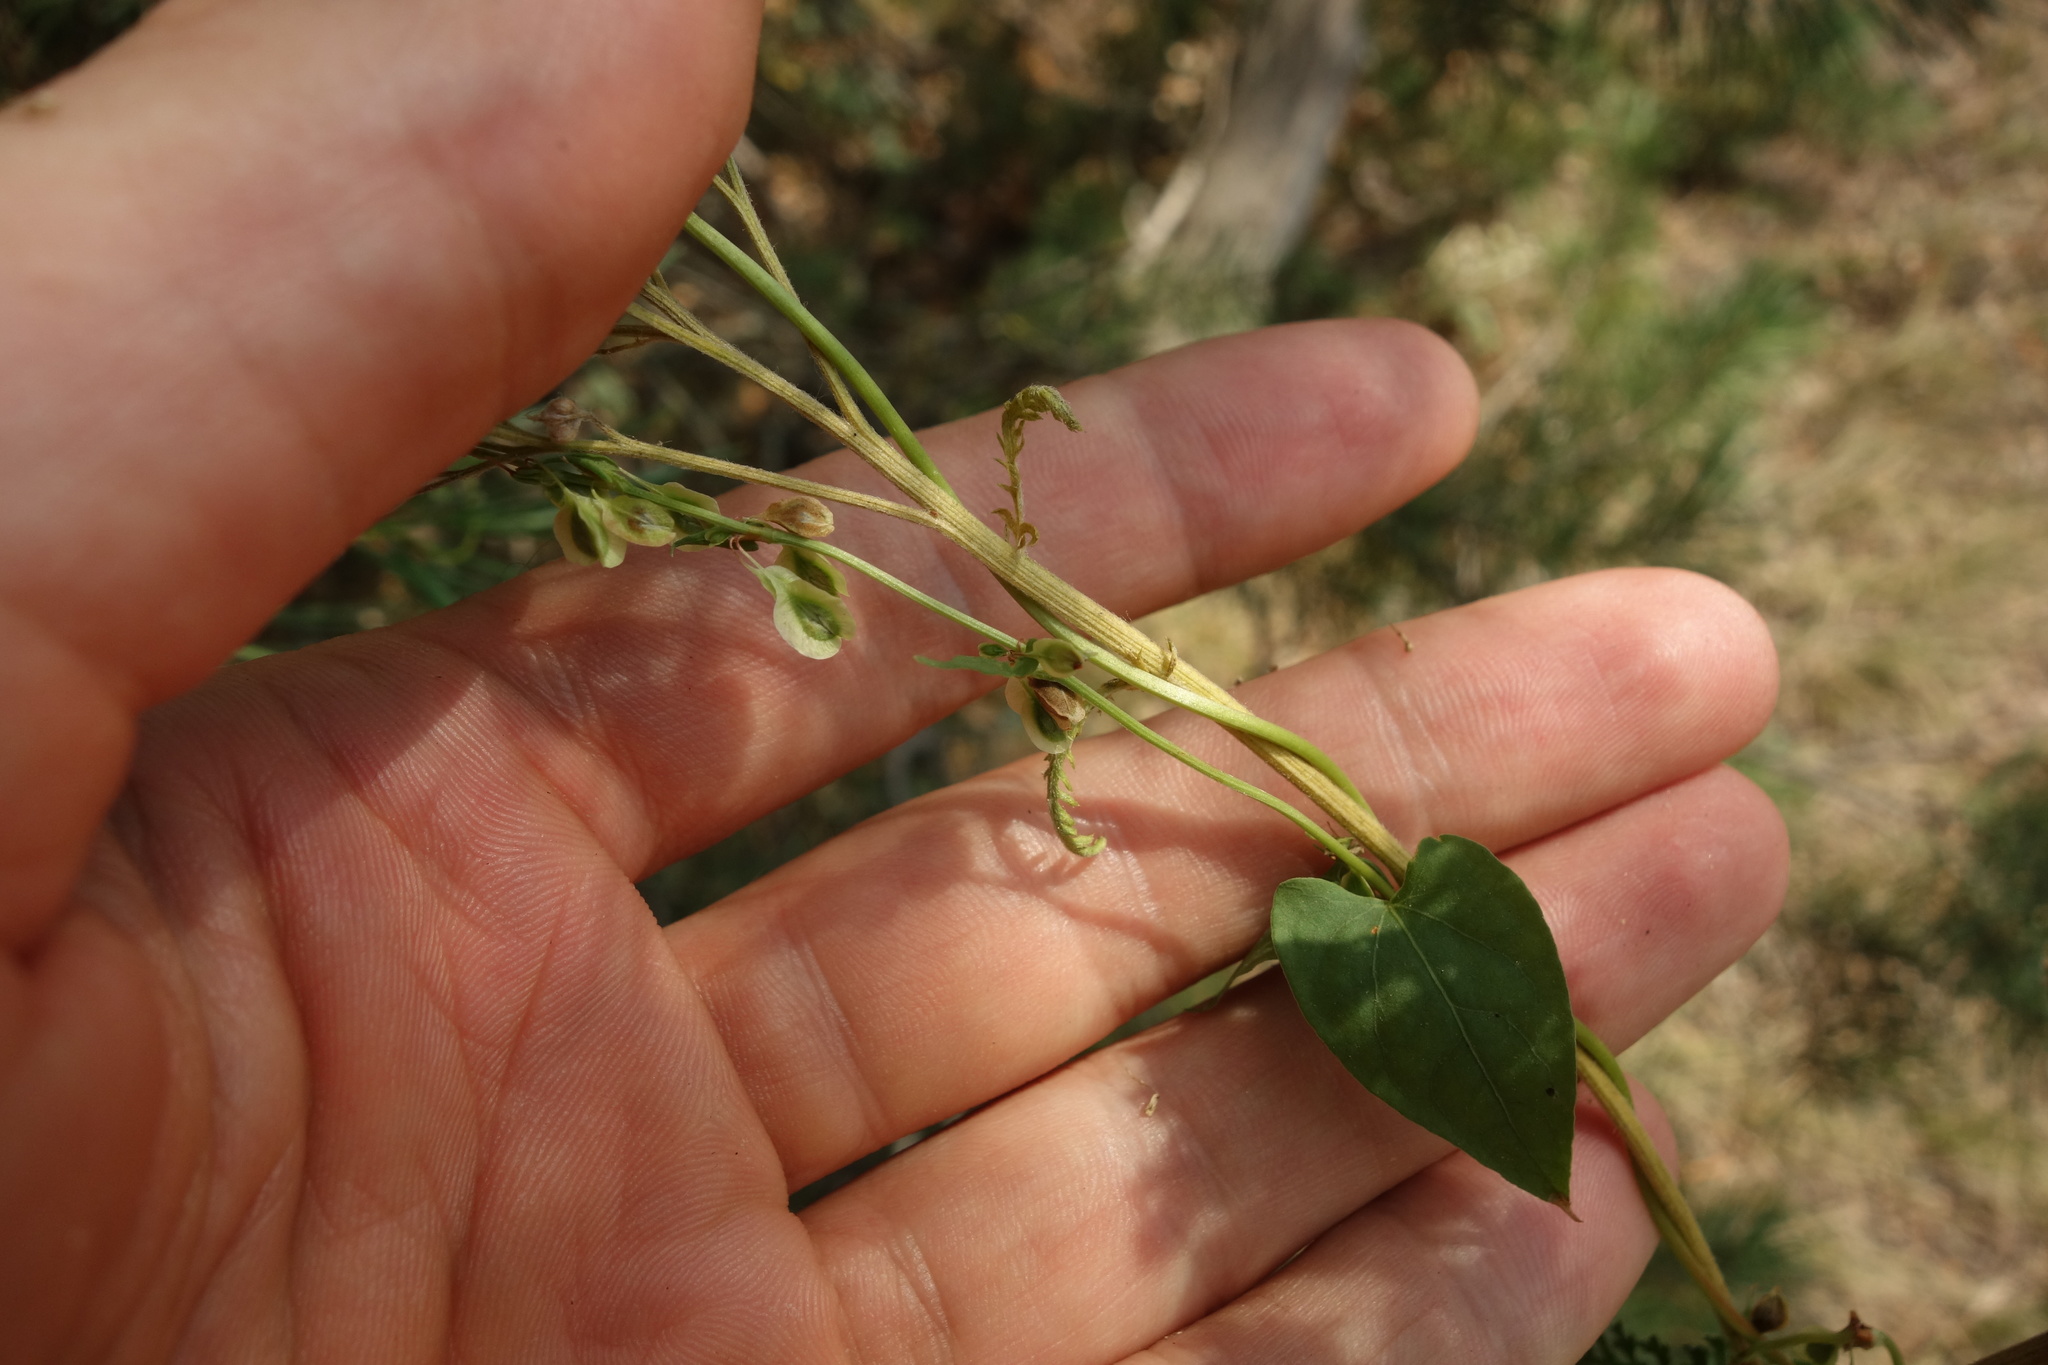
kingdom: Plantae
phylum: Tracheophyta
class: Magnoliopsida
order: Caryophyllales
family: Polygonaceae
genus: Fallopia
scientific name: Fallopia dumetorum
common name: Copse-bindweed
